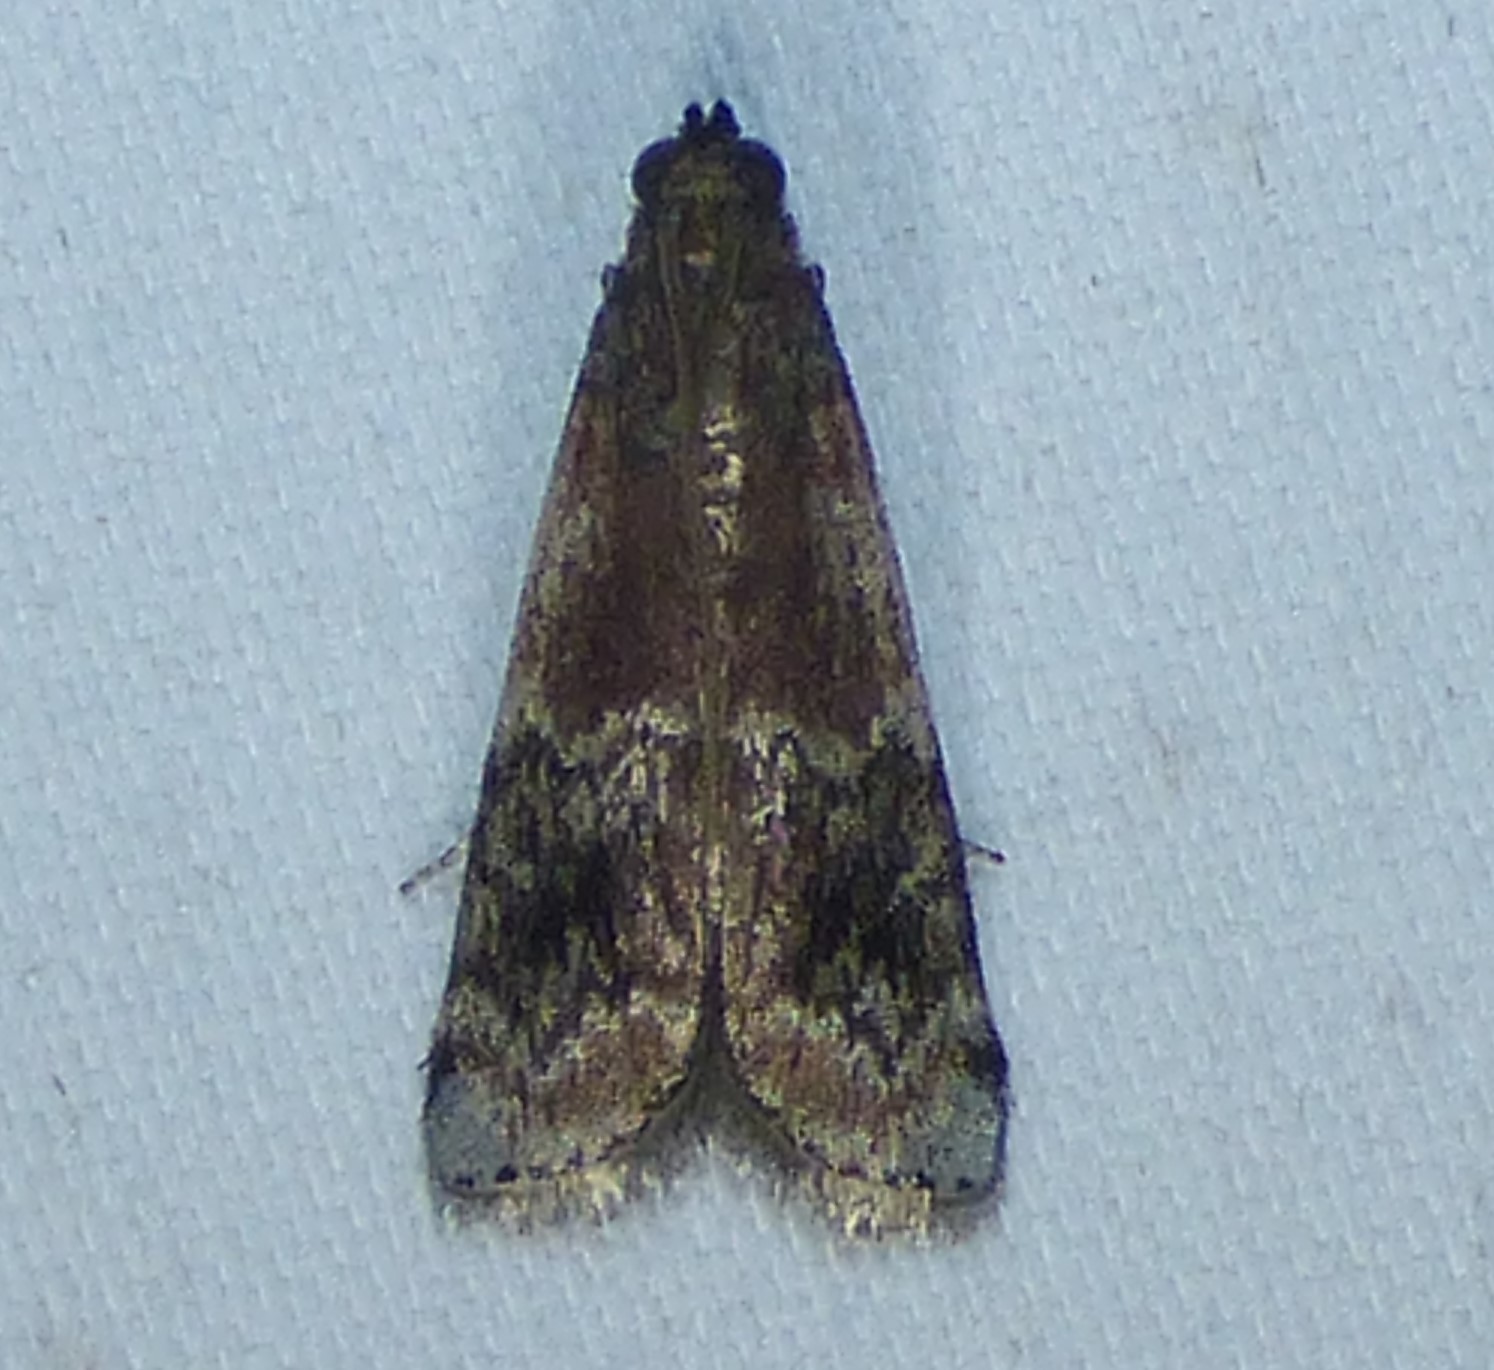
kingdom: Animalia
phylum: Arthropoda
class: Insecta
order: Lepidoptera
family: Pyralidae
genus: Euzophera
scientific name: Euzophera semifuneralis
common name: American plum borer moth
